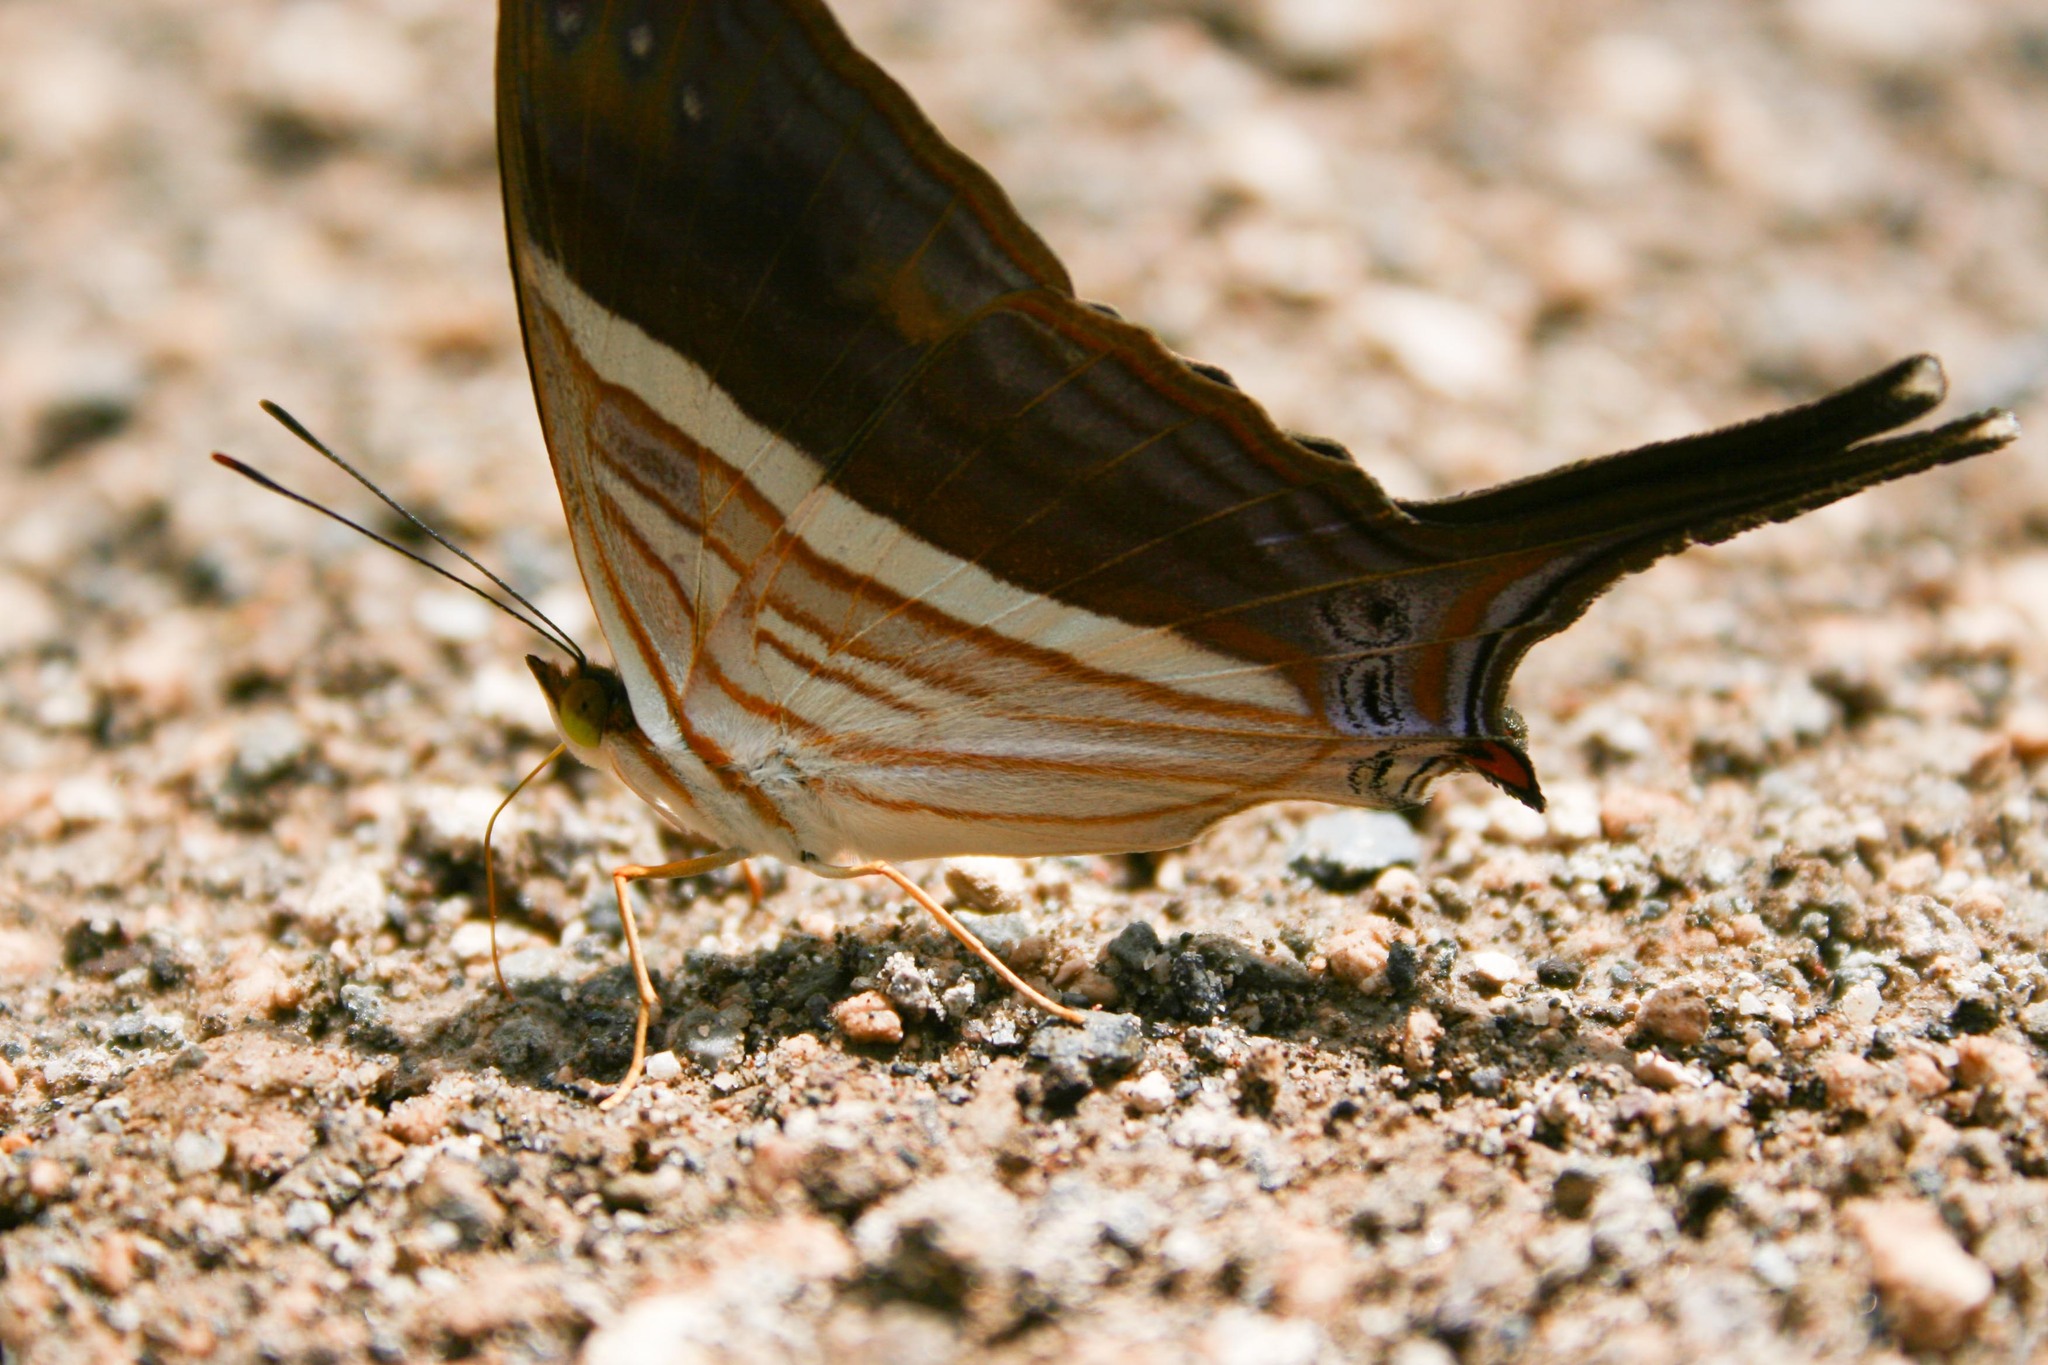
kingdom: Animalia
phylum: Arthropoda
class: Insecta
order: Lepidoptera
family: Nymphalidae
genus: Marpesia
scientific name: Marpesia chiron
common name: Many-banded daggerwing
